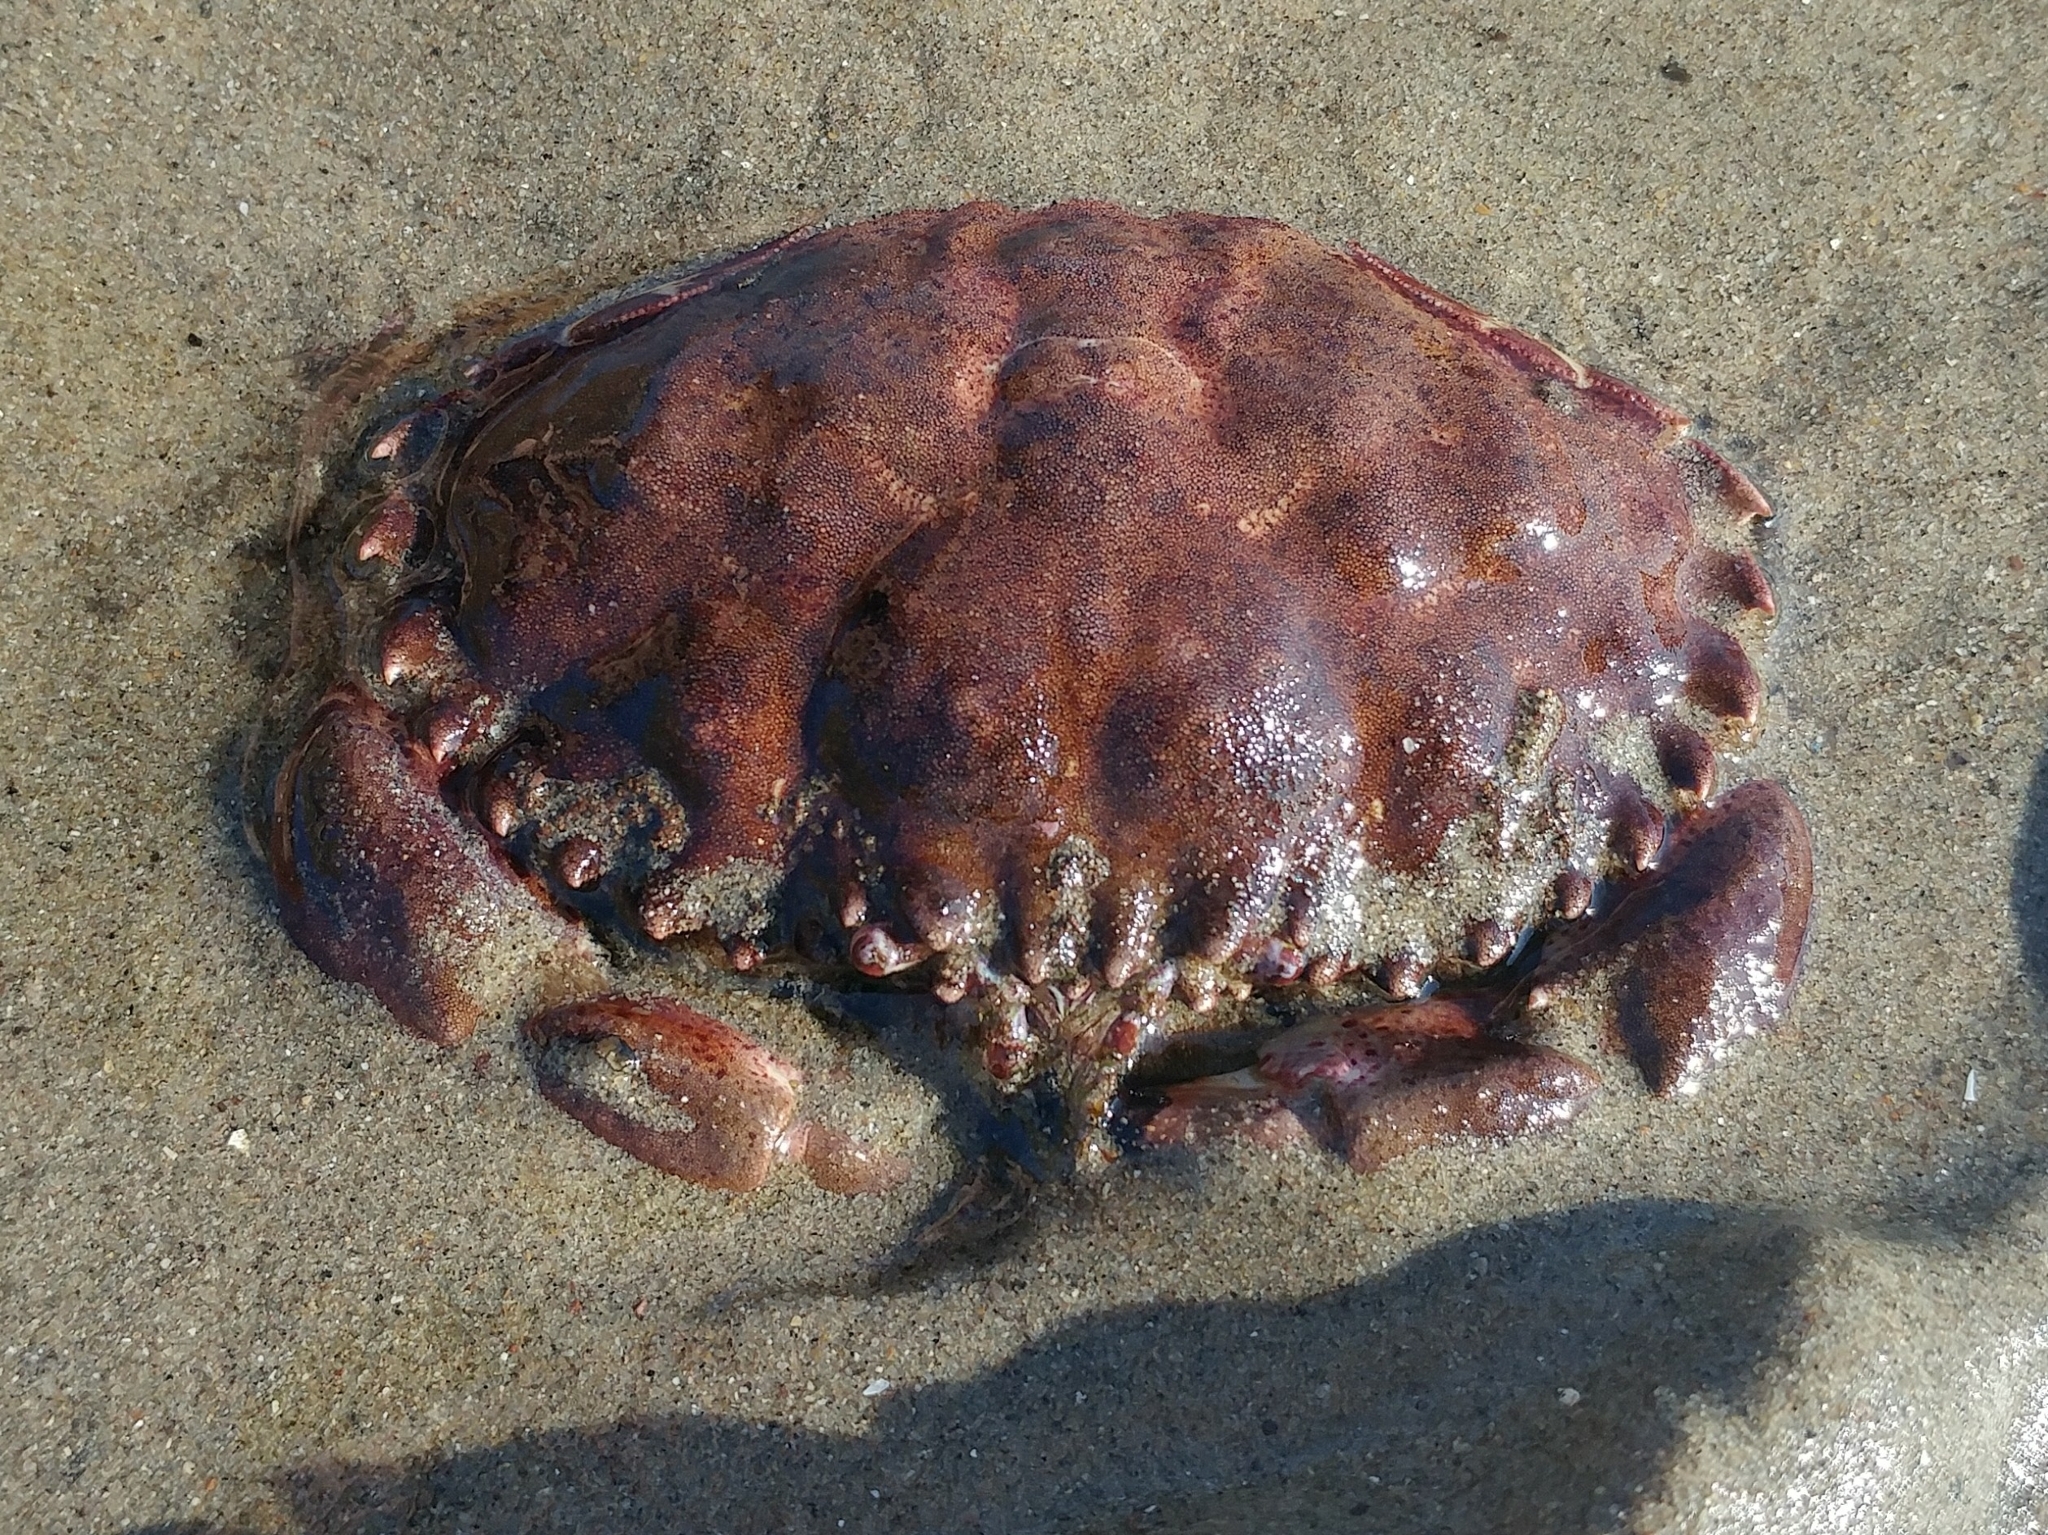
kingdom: Animalia
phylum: Arthropoda
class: Malacostraca
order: Decapoda
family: Cancridae
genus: Romaleon
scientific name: Romaleon antennarium
